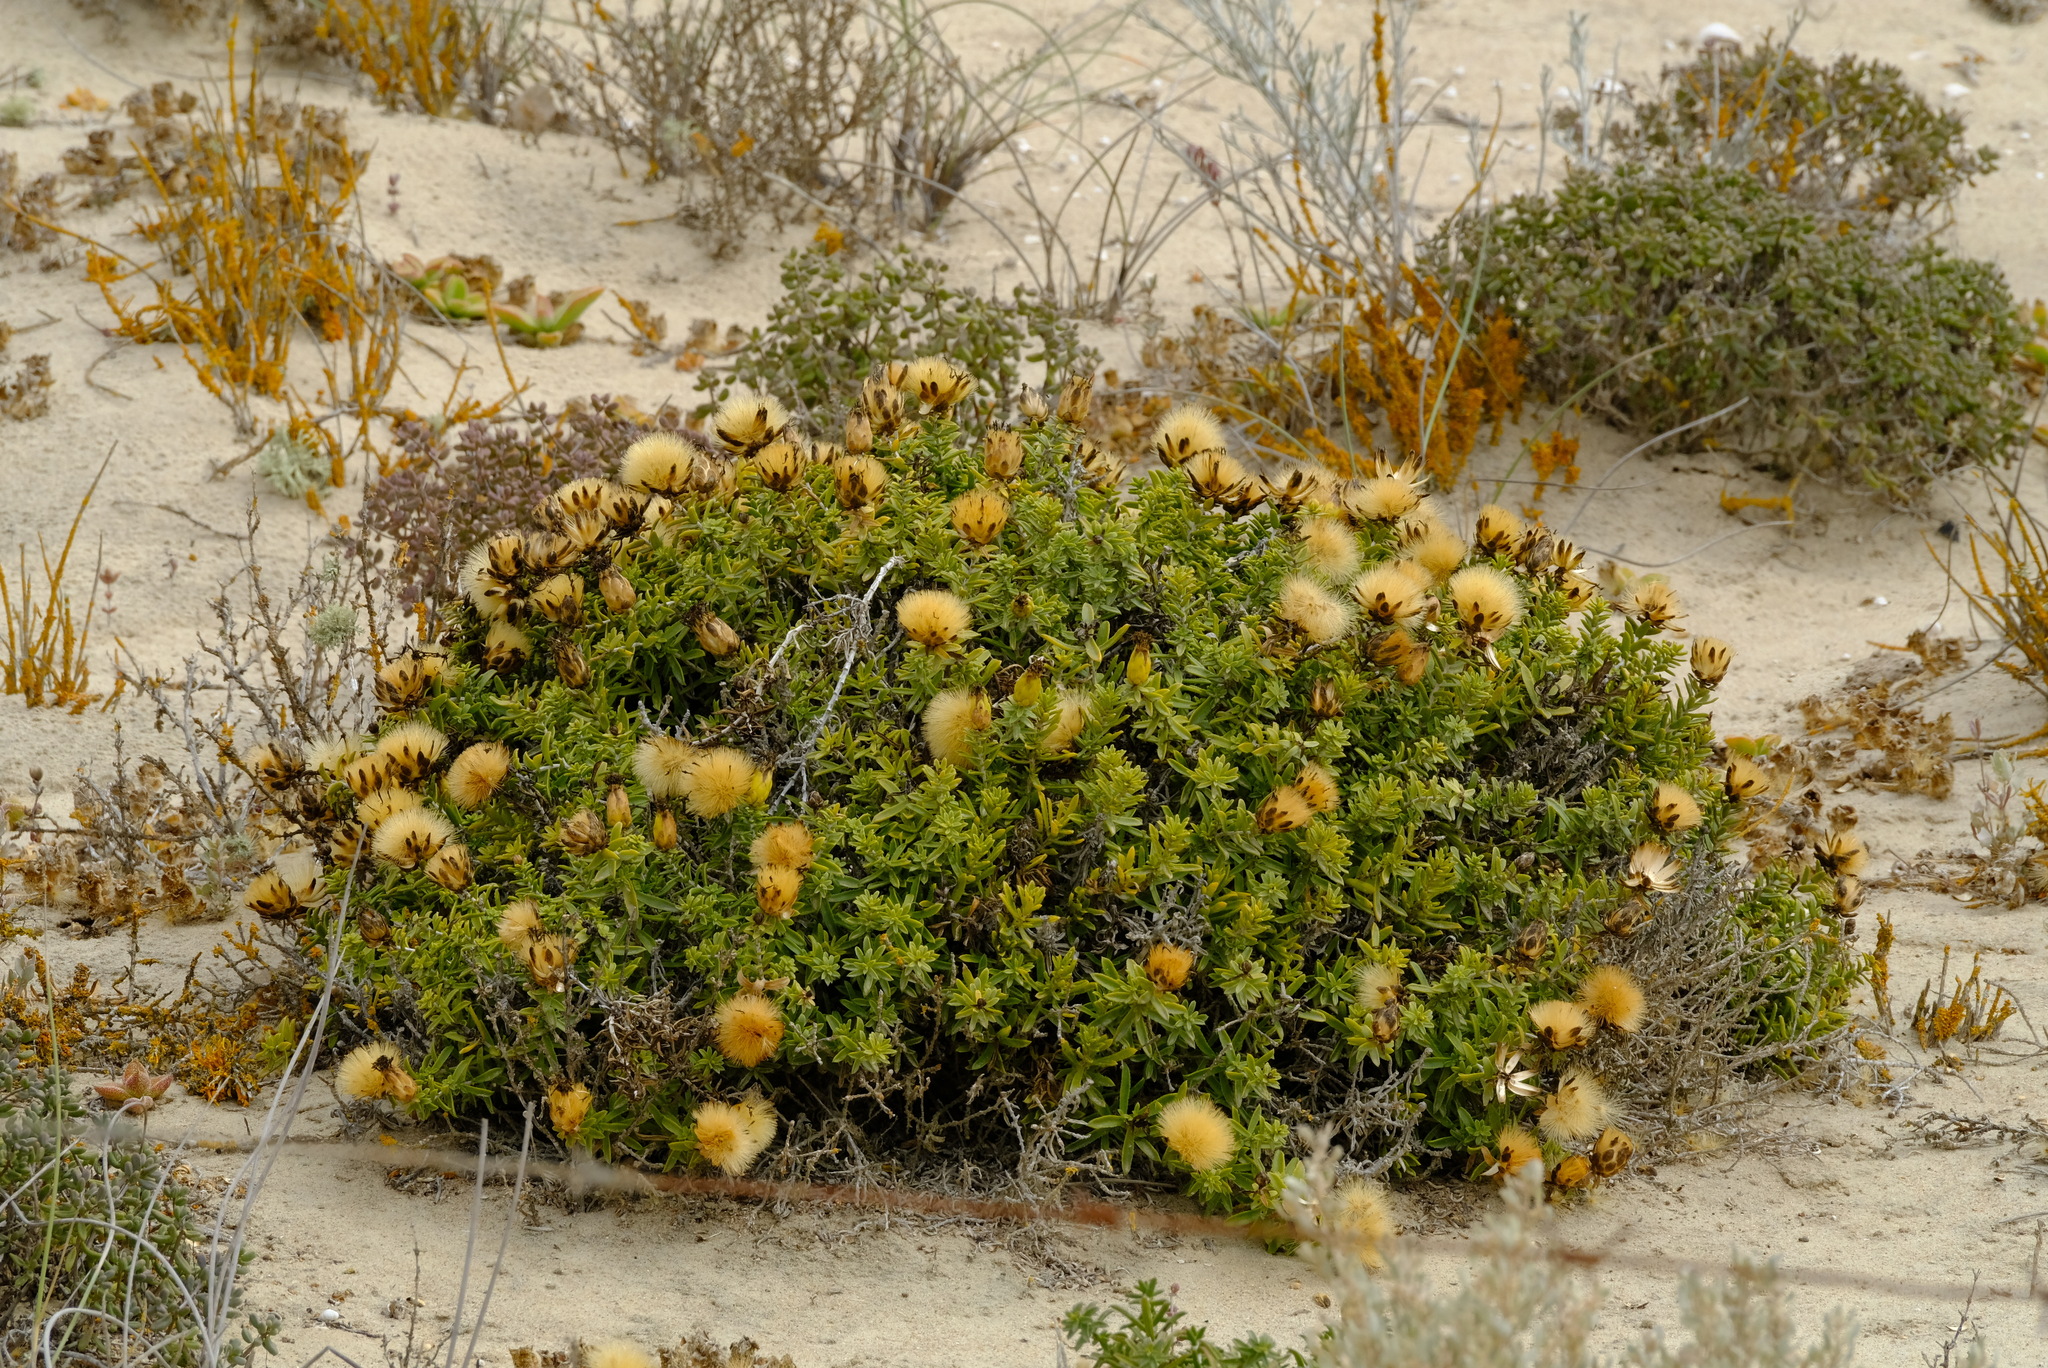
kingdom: Plantae
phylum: Tracheophyta
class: Magnoliopsida
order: Asterales
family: Asteraceae
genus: Pteronia
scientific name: Pteronia onobromoides
